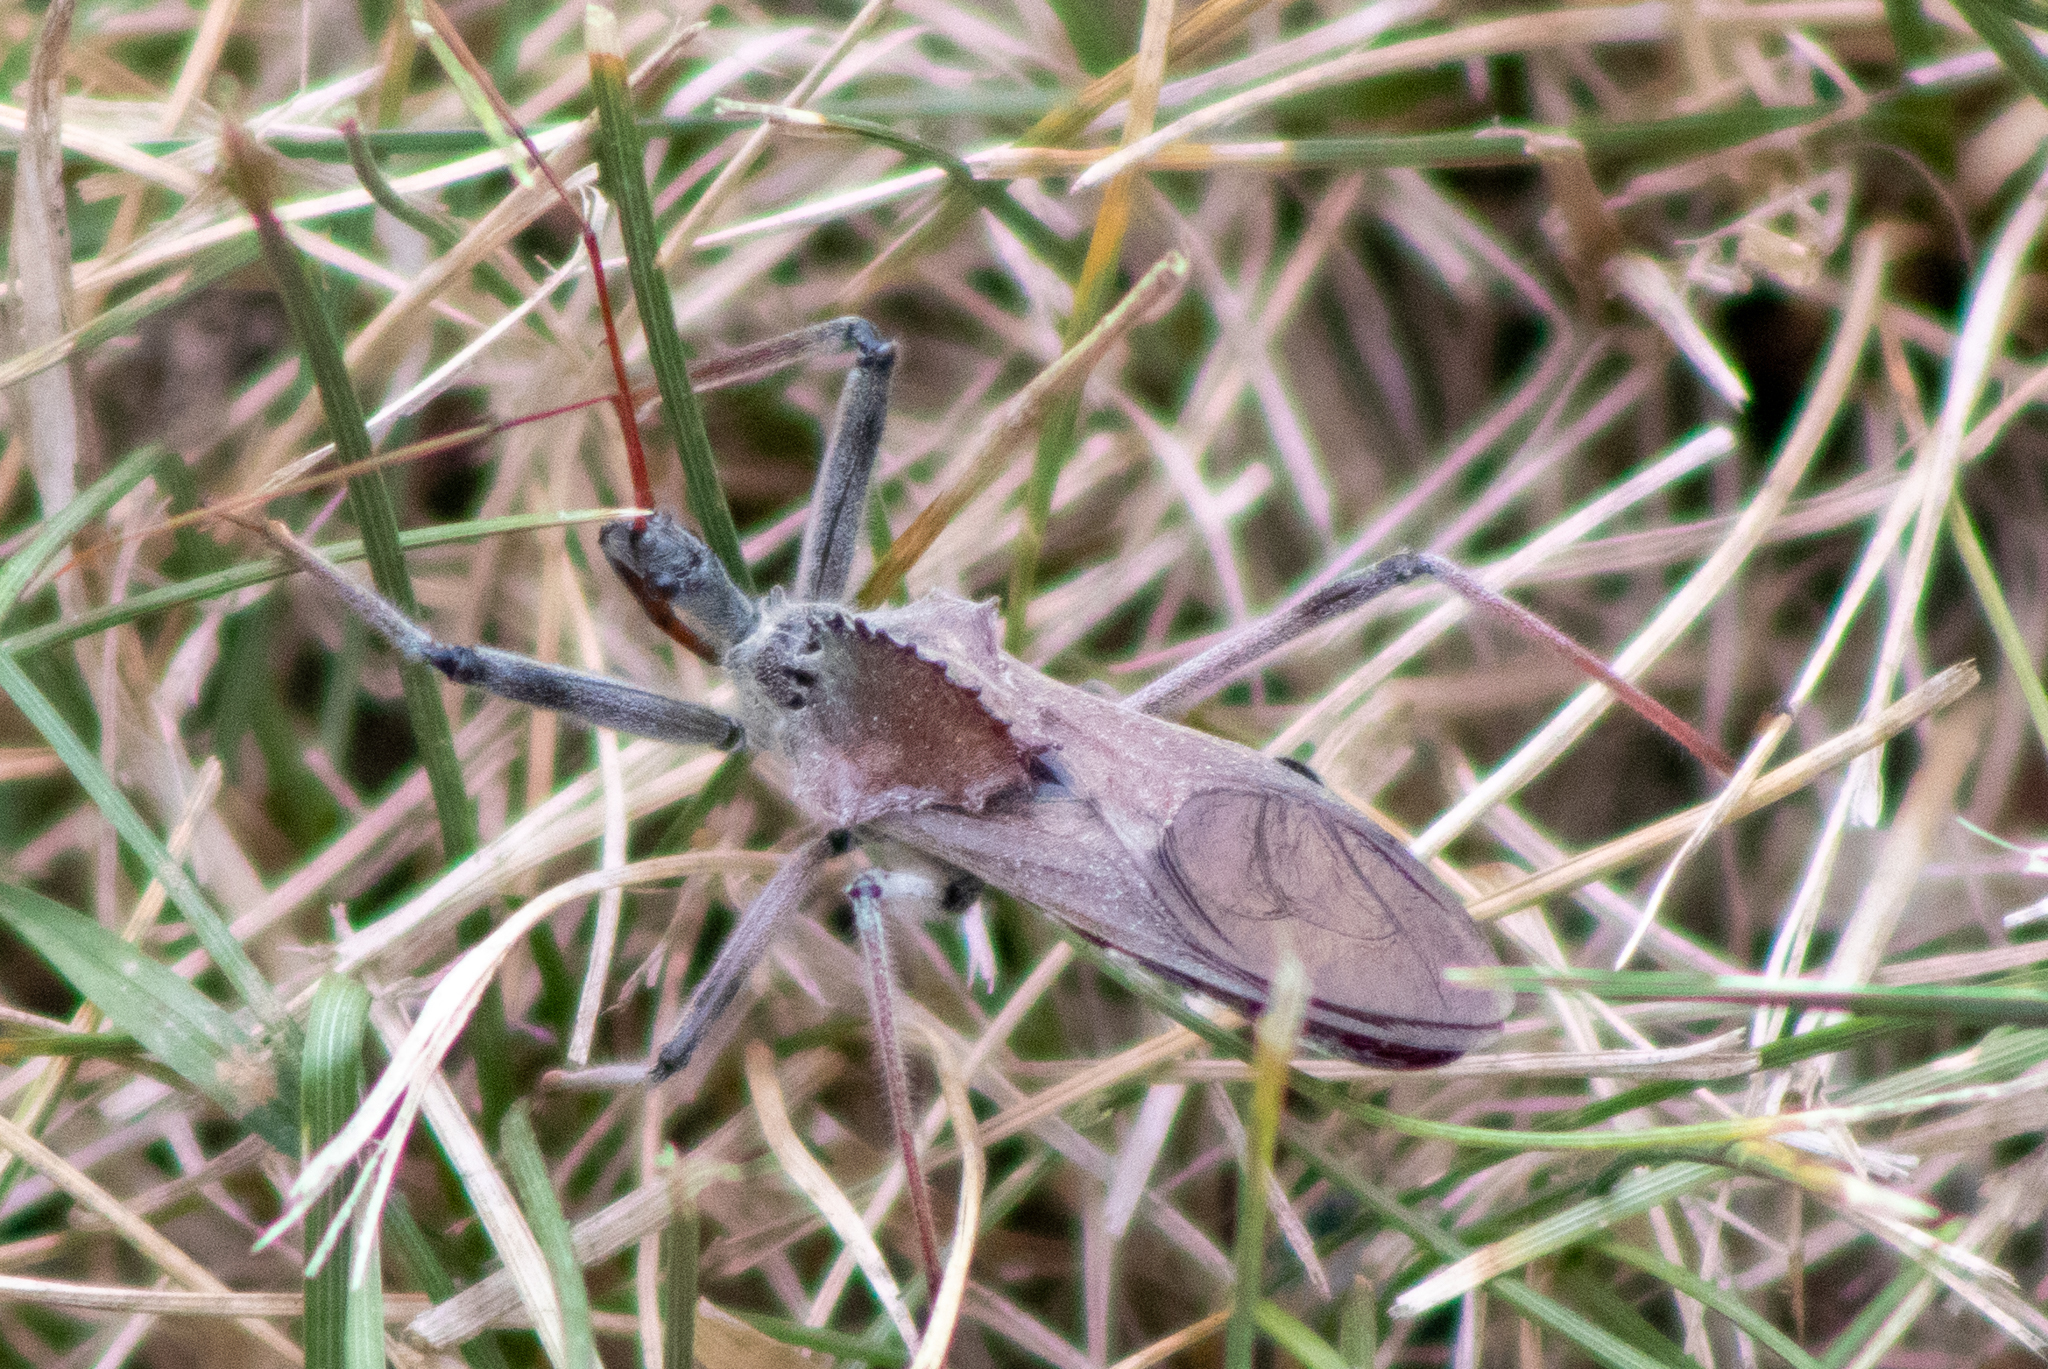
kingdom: Animalia
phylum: Arthropoda
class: Insecta
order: Hemiptera
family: Reduviidae
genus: Arilus
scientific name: Arilus cristatus
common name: North american wheel bug
